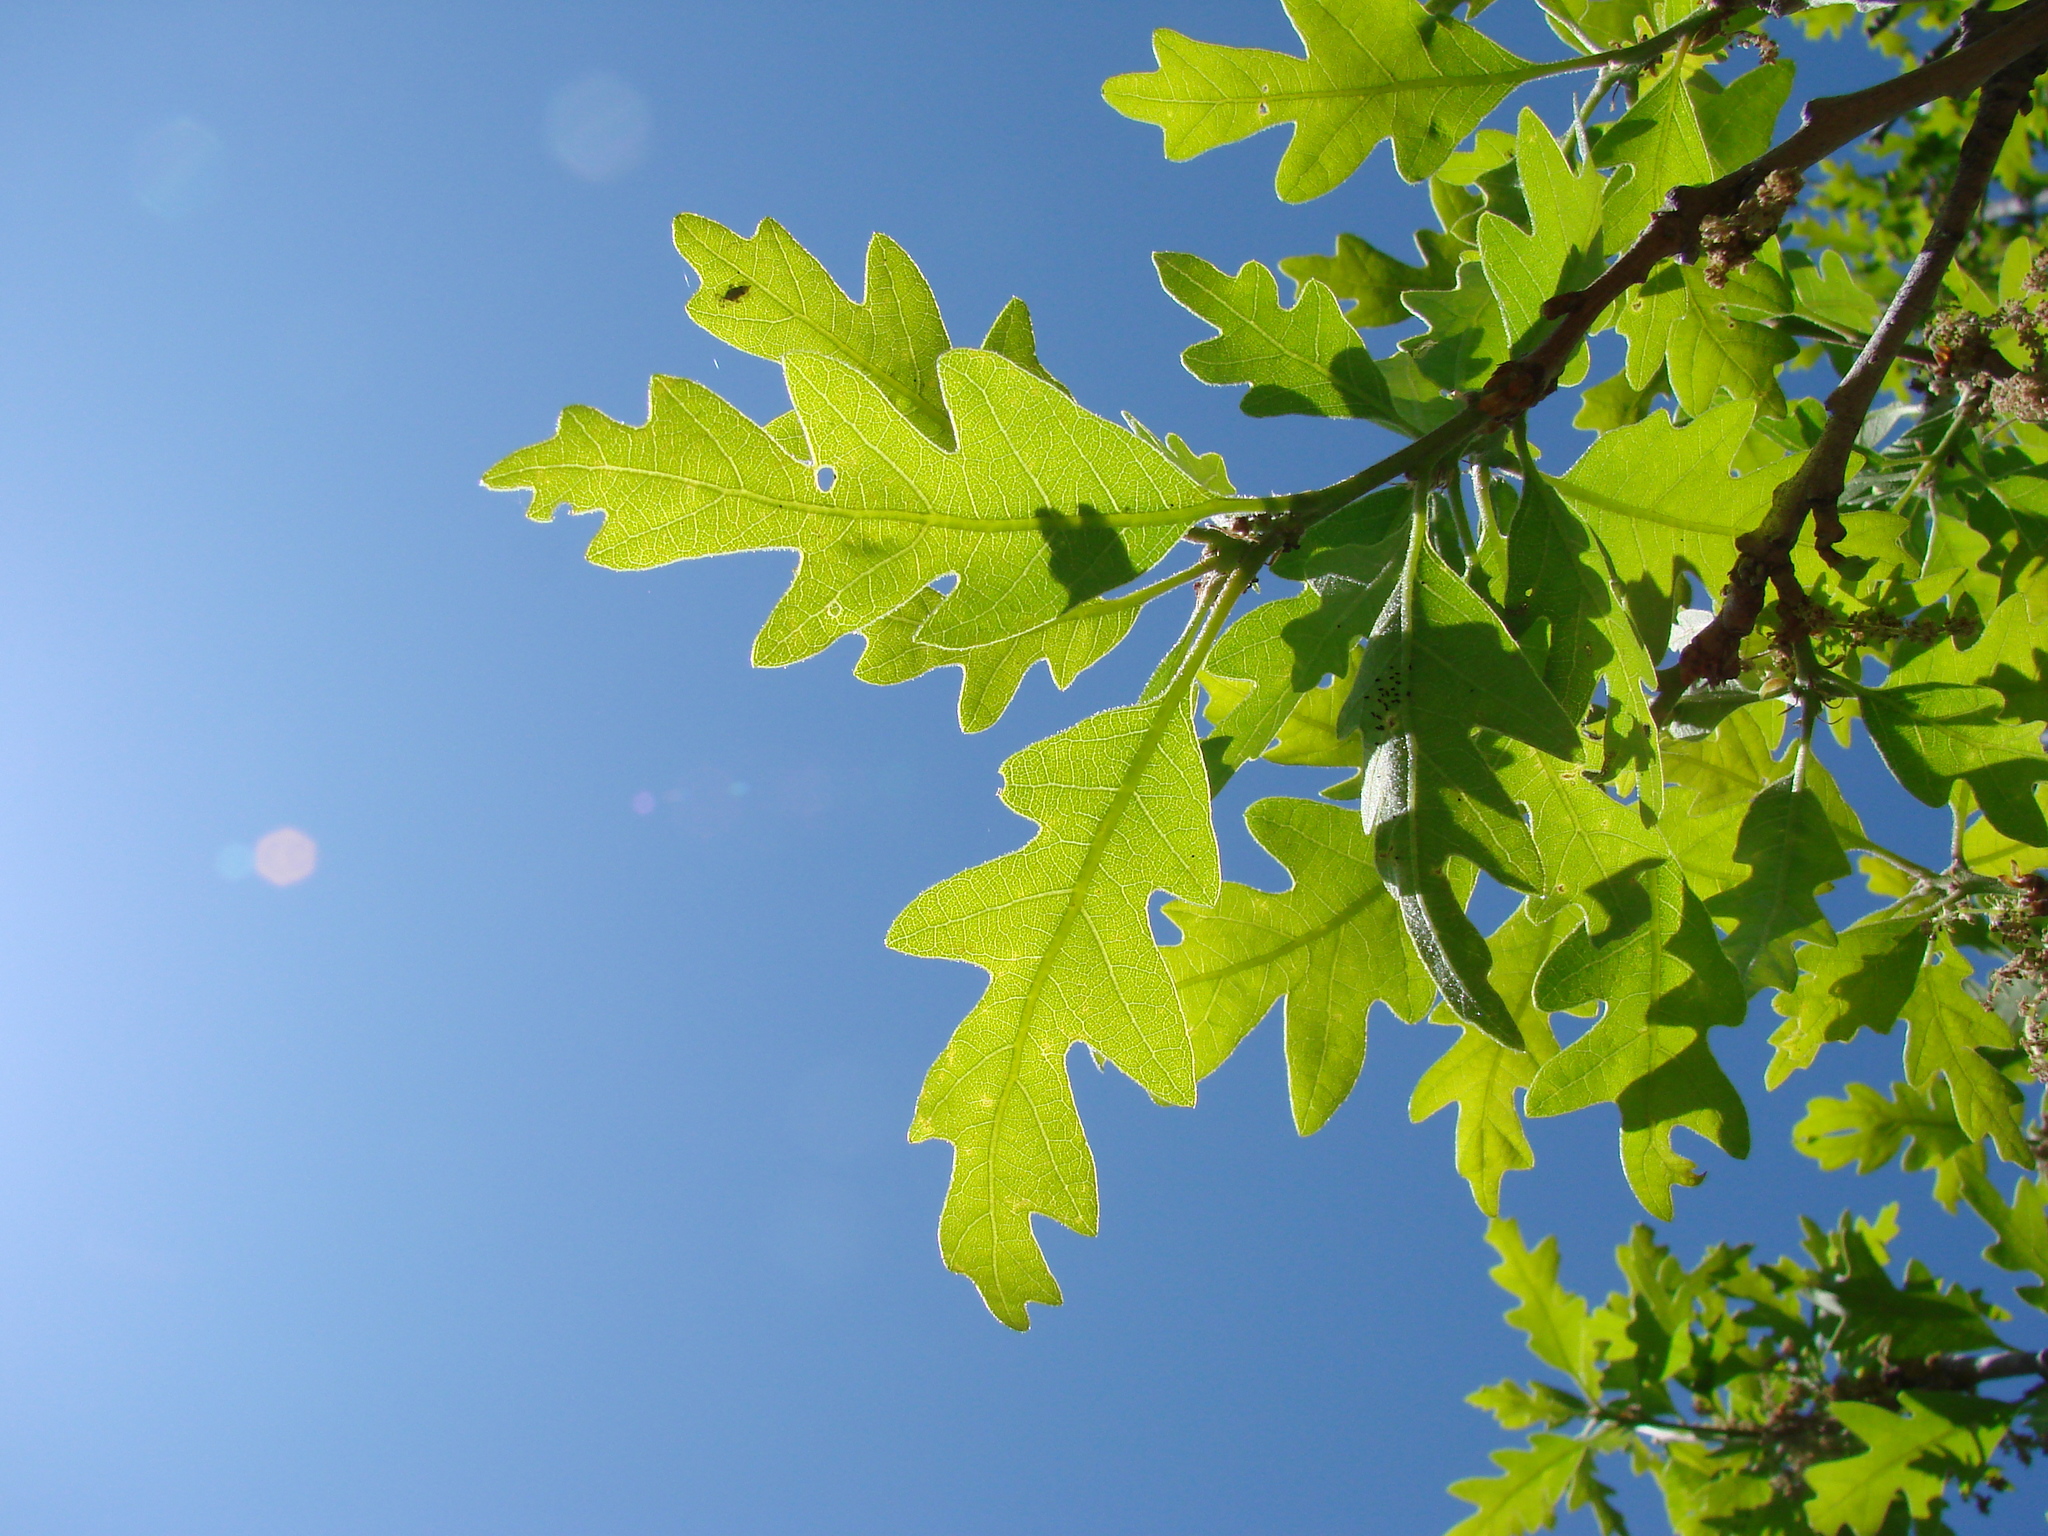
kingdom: Plantae
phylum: Tracheophyta
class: Magnoliopsida
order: Fagales
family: Fagaceae
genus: Quercus
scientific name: Quercus gambelii
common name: Gambel oak
